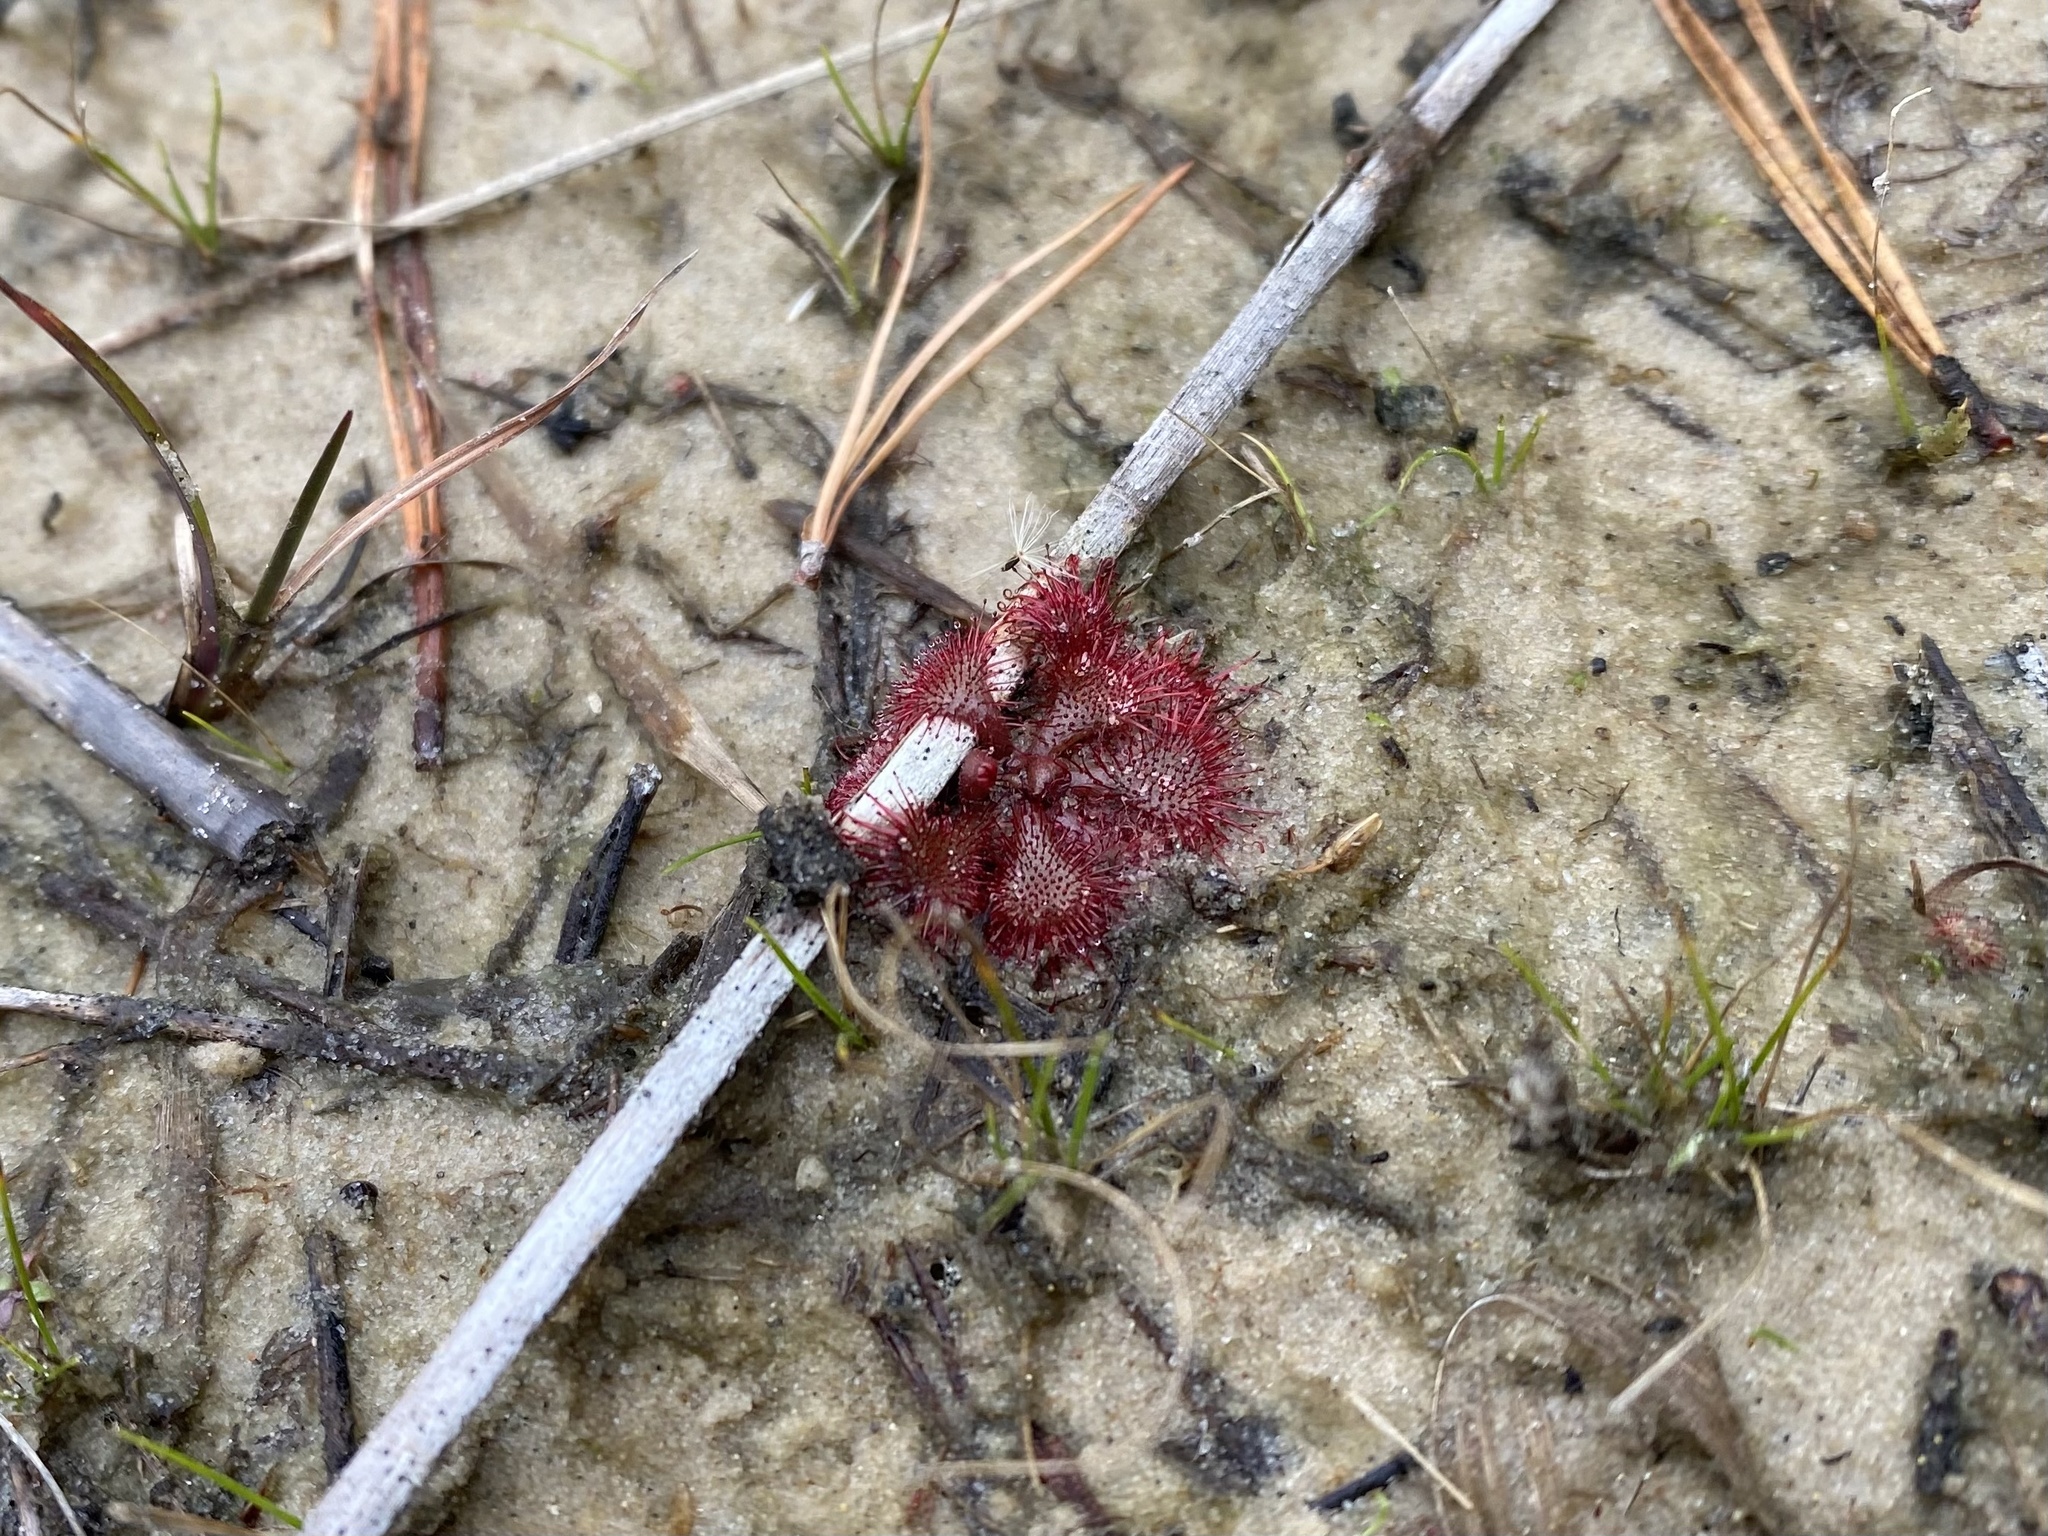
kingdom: Plantae
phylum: Tracheophyta
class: Magnoliopsida
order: Caryophyllales
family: Droseraceae
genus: Drosera
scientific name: Drosera brevifolia
